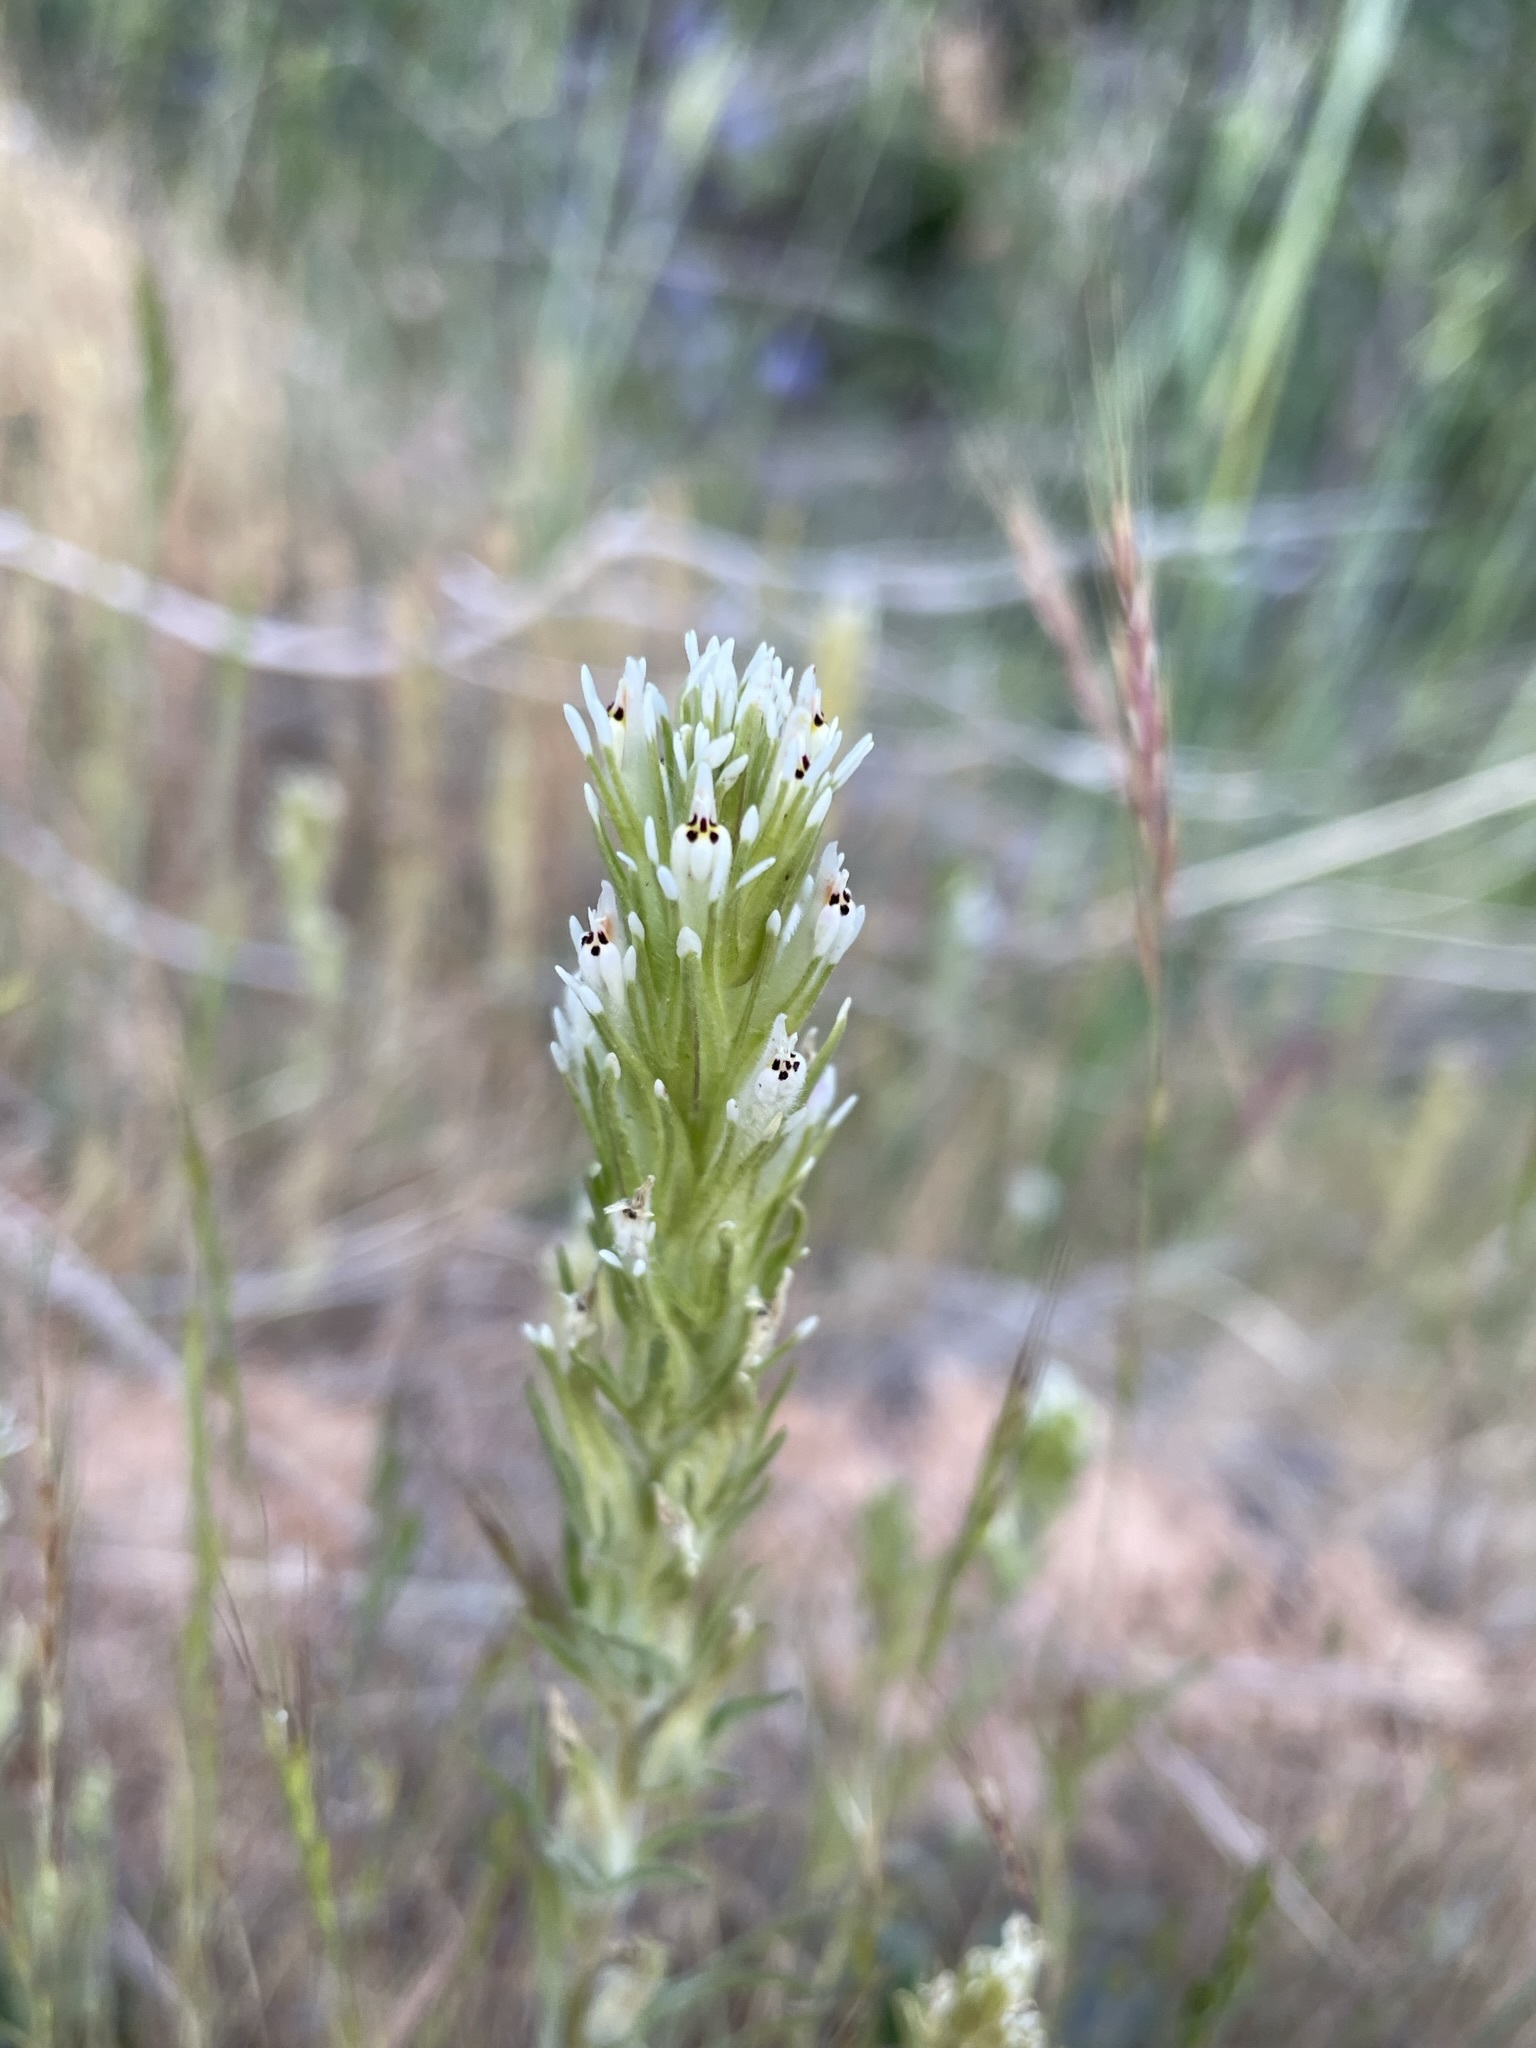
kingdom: Plantae
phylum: Tracheophyta
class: Magnoliopsida
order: Lamiales
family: Orobanchaceae
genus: Castilleja
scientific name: Castilleja attenuata
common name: Valley tassels
